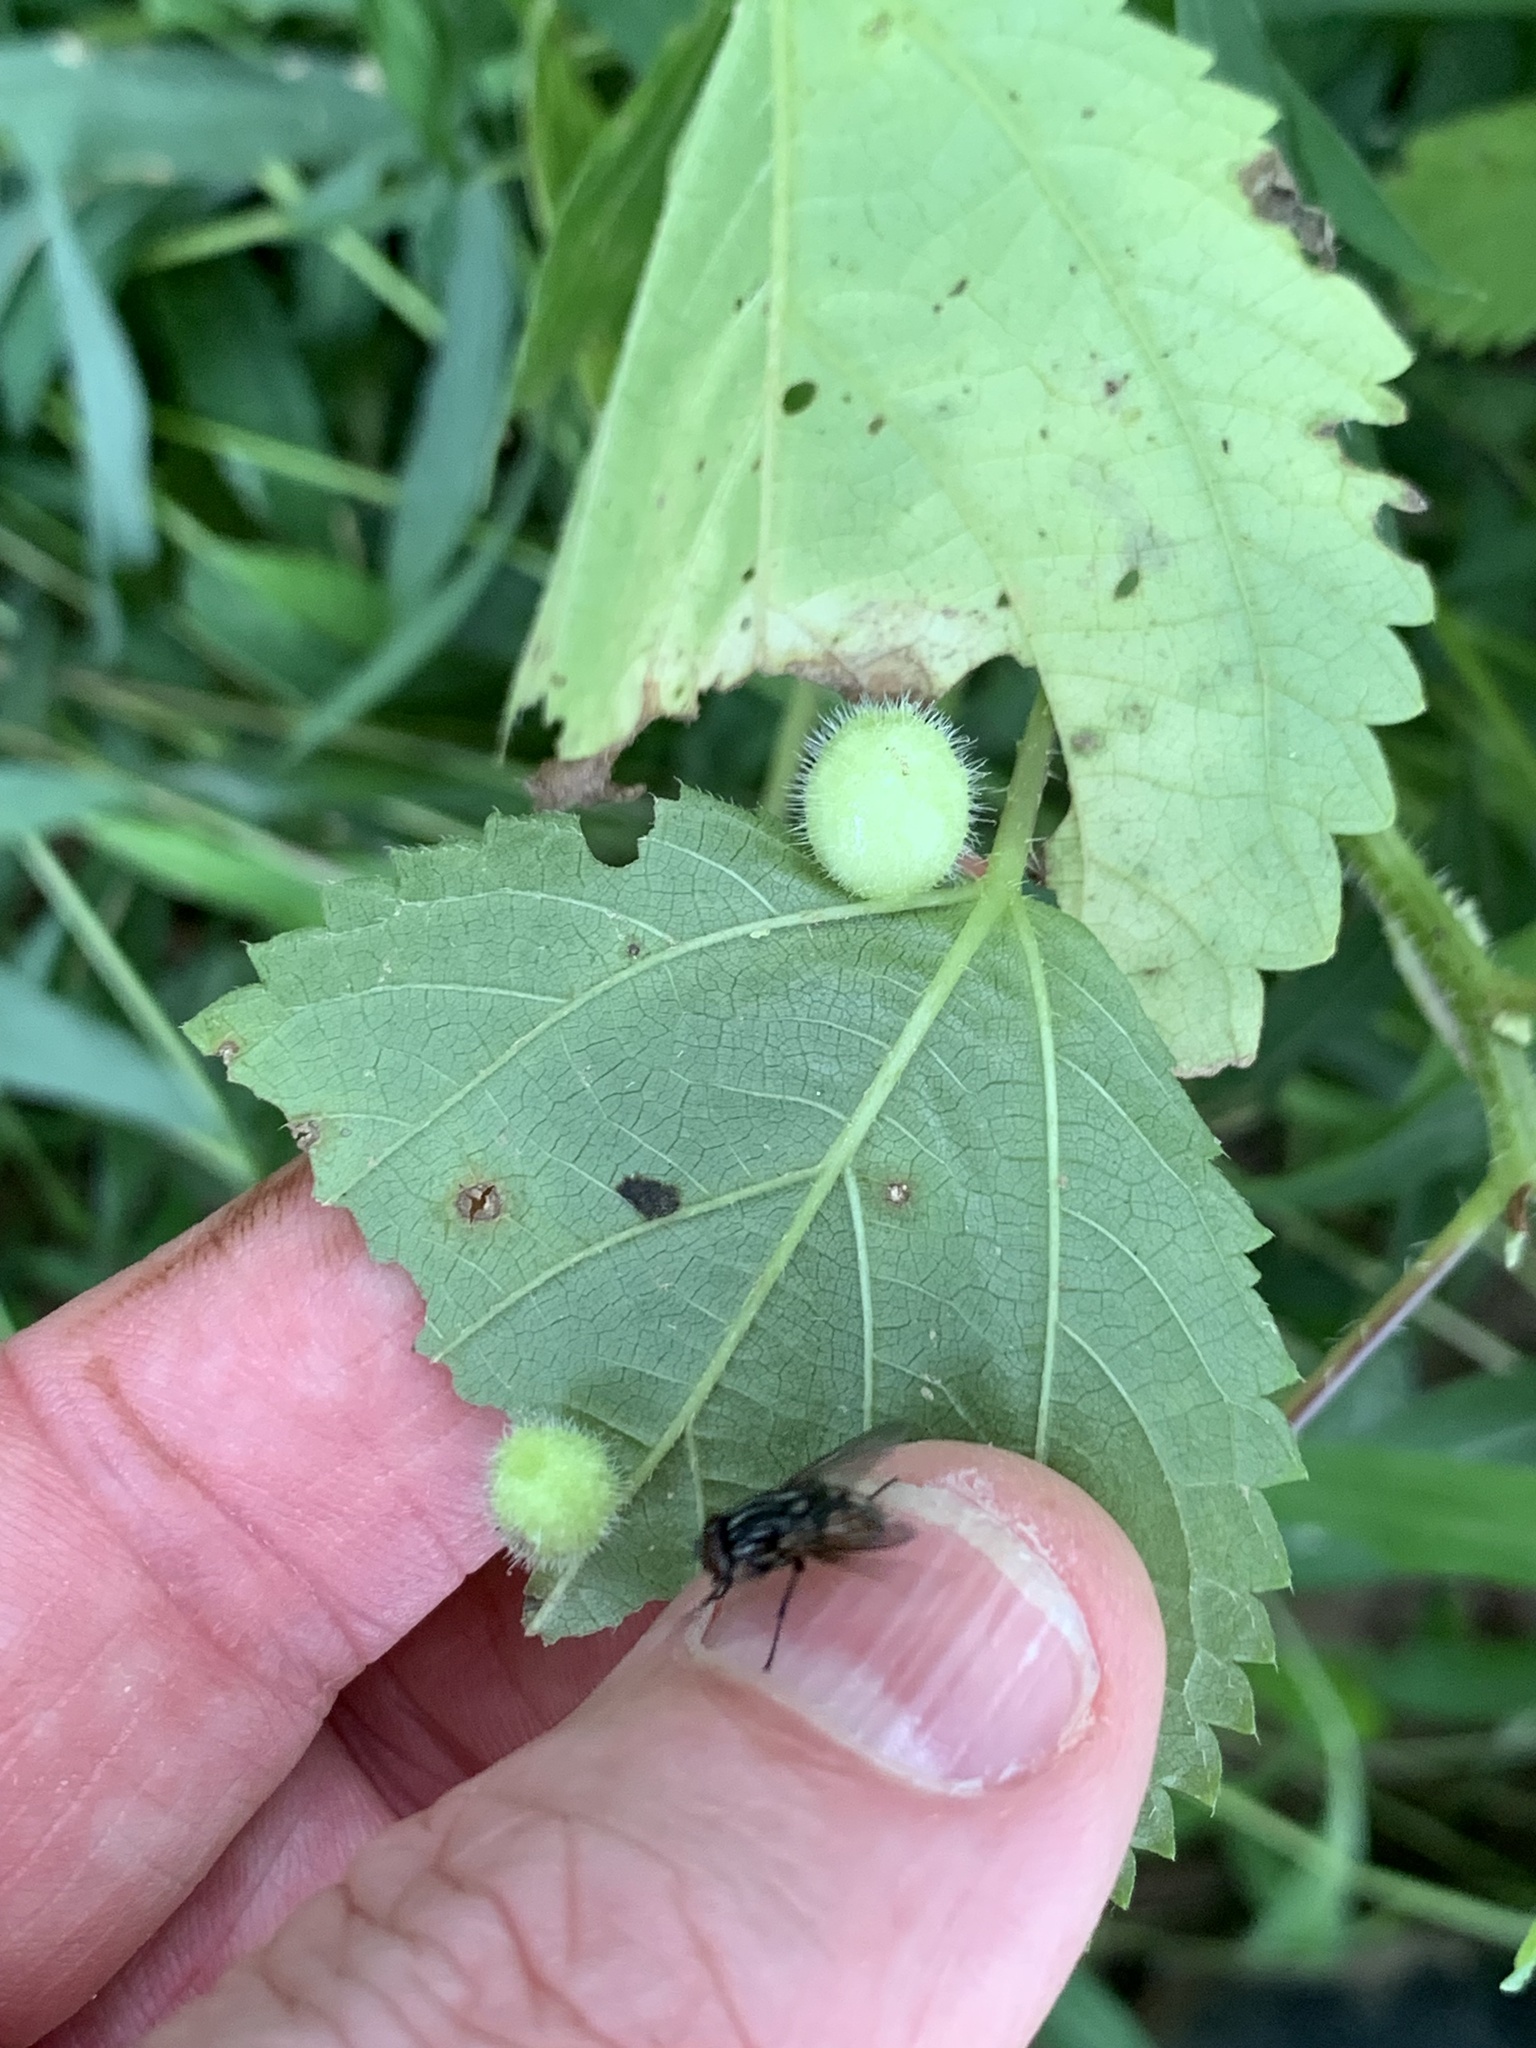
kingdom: Animalia
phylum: Arthropoda
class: Insecta
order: Diptera
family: Cecidomyiidae
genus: Dasineura
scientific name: Dasineura pilosa
